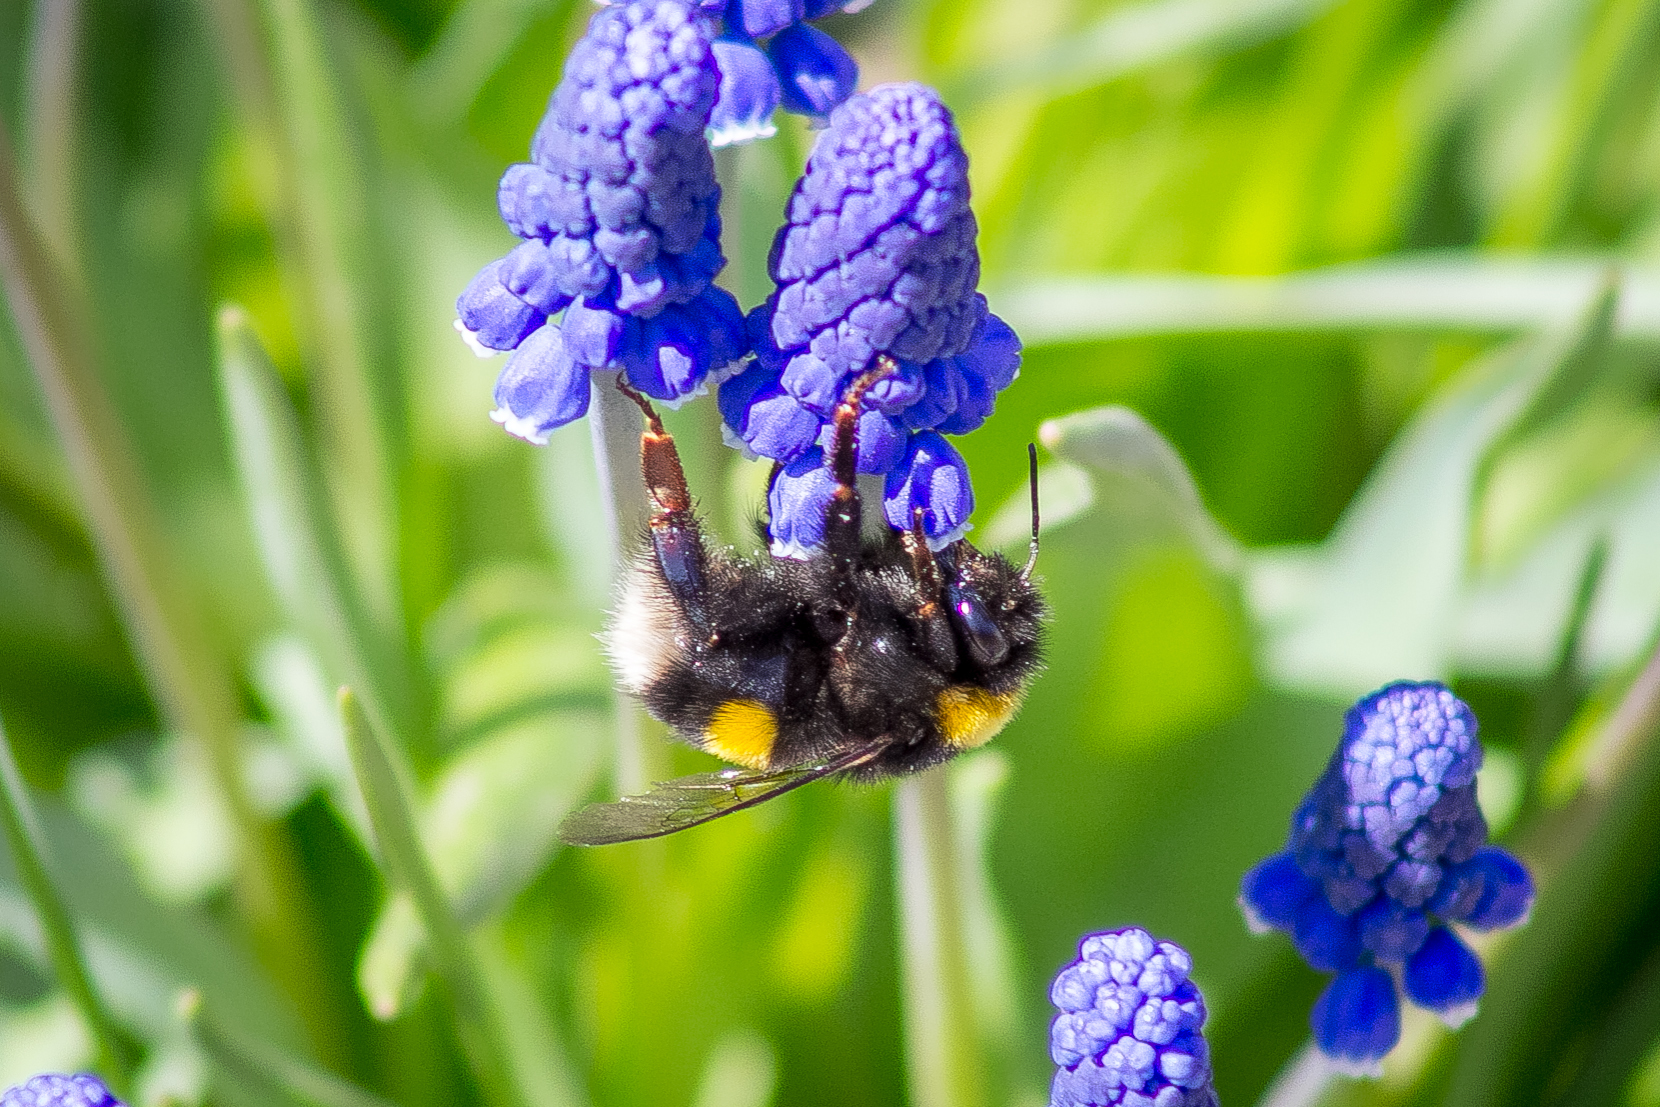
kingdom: Animalia
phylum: Arthropoda
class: Insecta
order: Hymenoptera
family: Apidae
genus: Bombus
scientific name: Bombus
